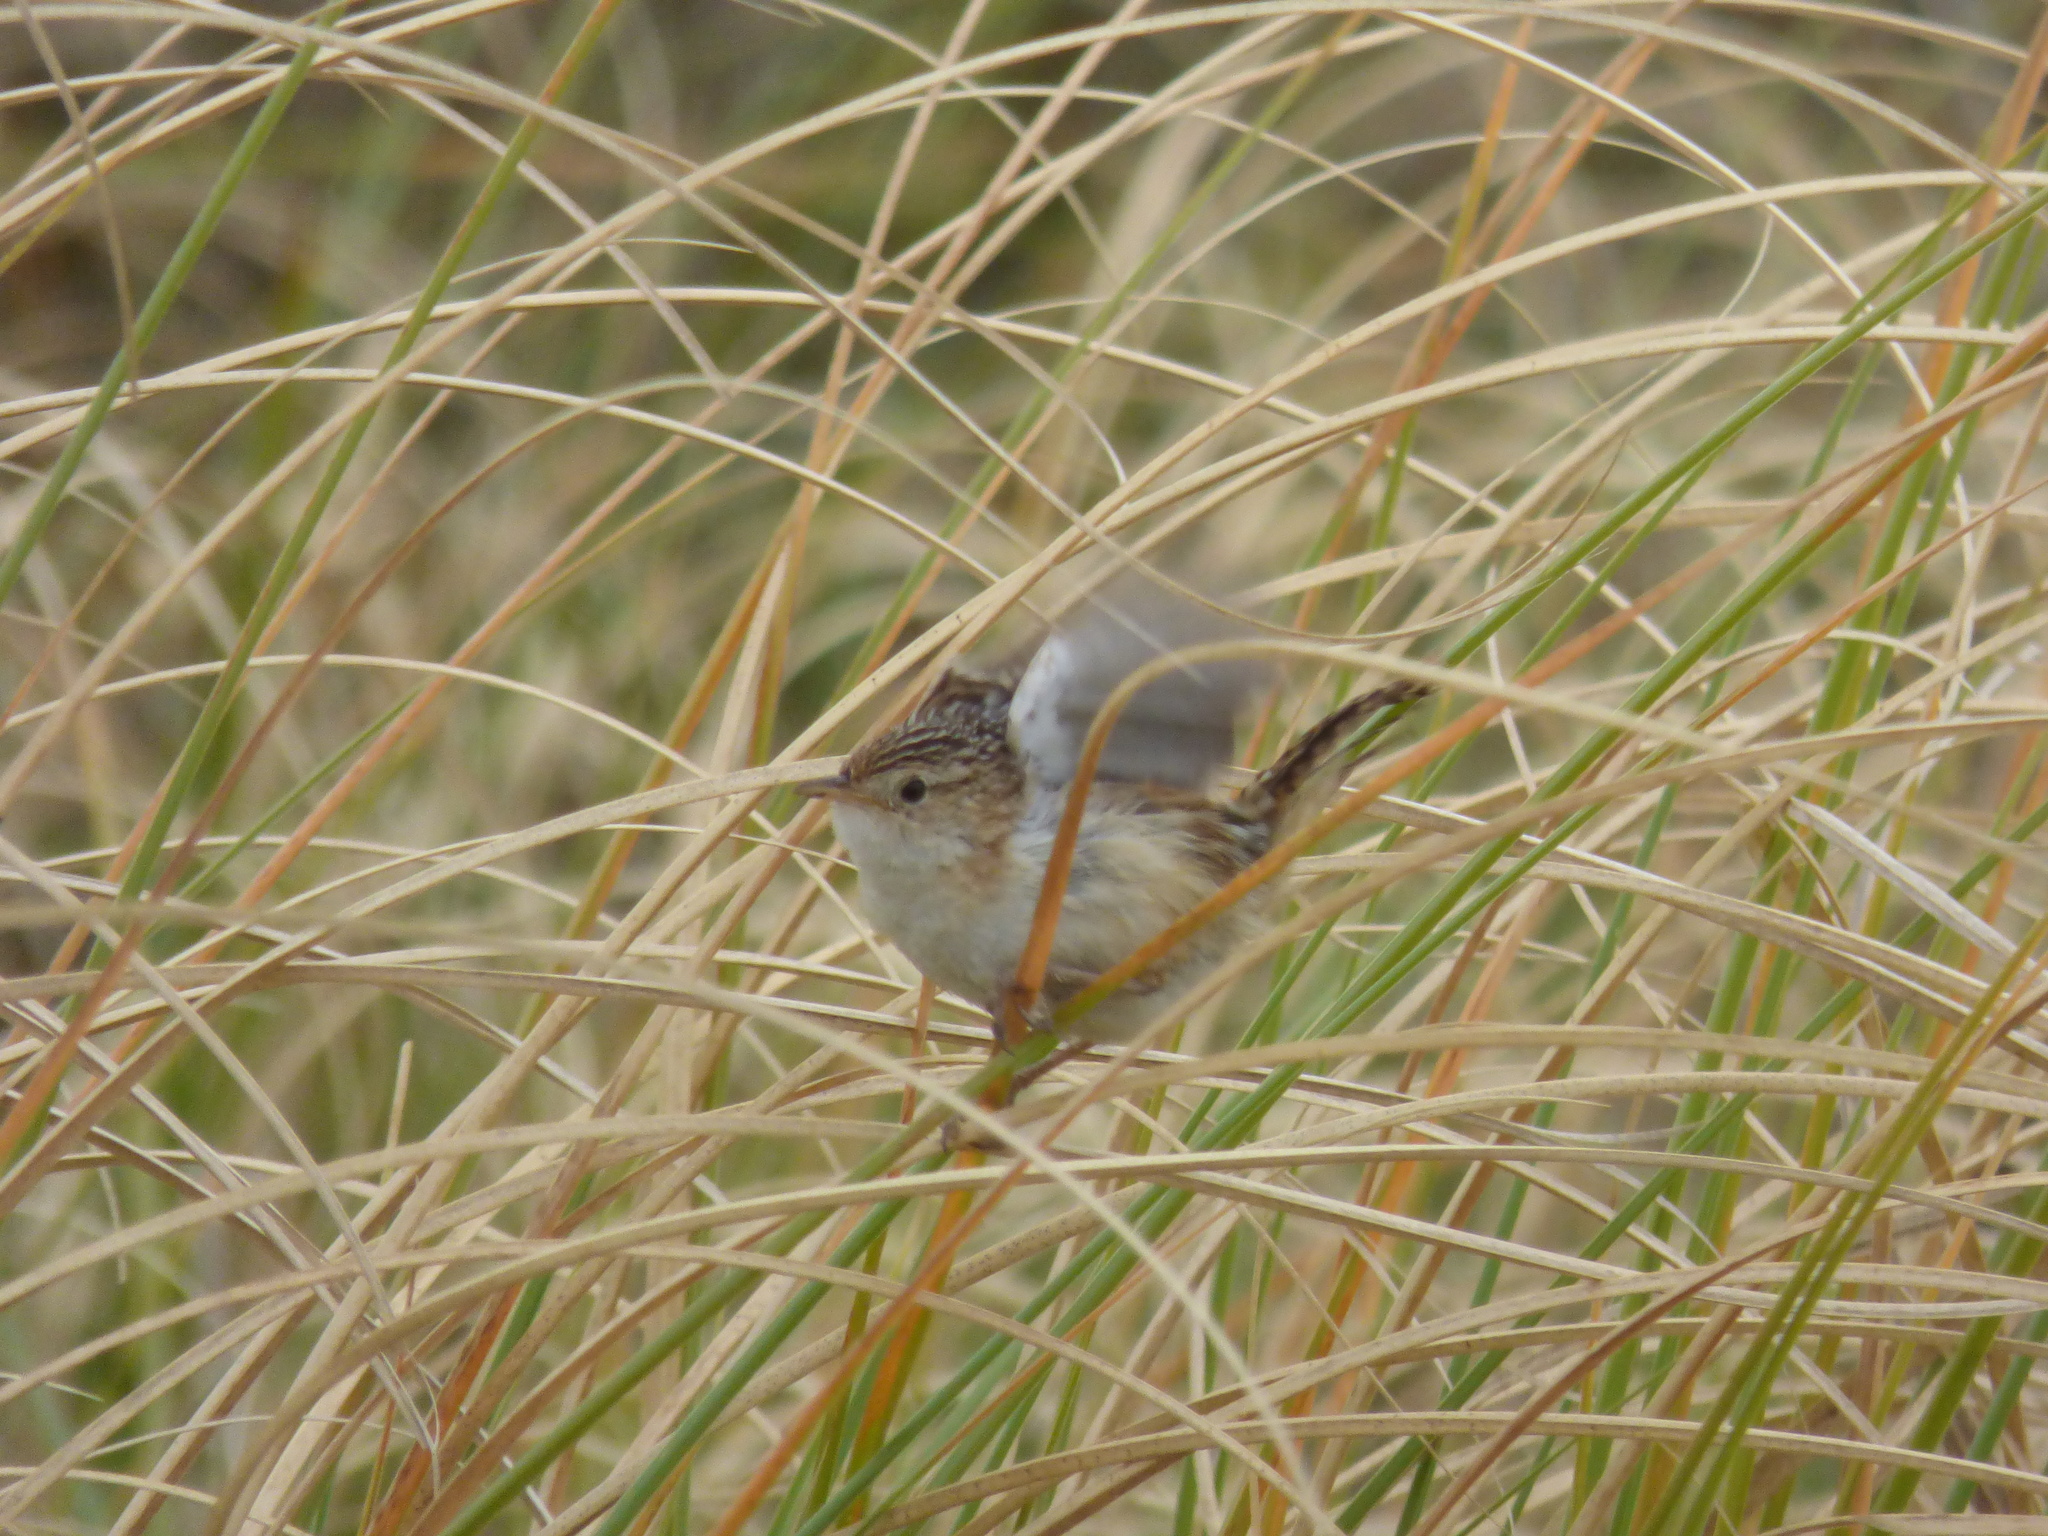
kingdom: Animalia
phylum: Chordata
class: Aves
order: Passeriformes
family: Troglodytidae
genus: Cistothorus
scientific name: Cistothorus platensis
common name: Sedge wren
